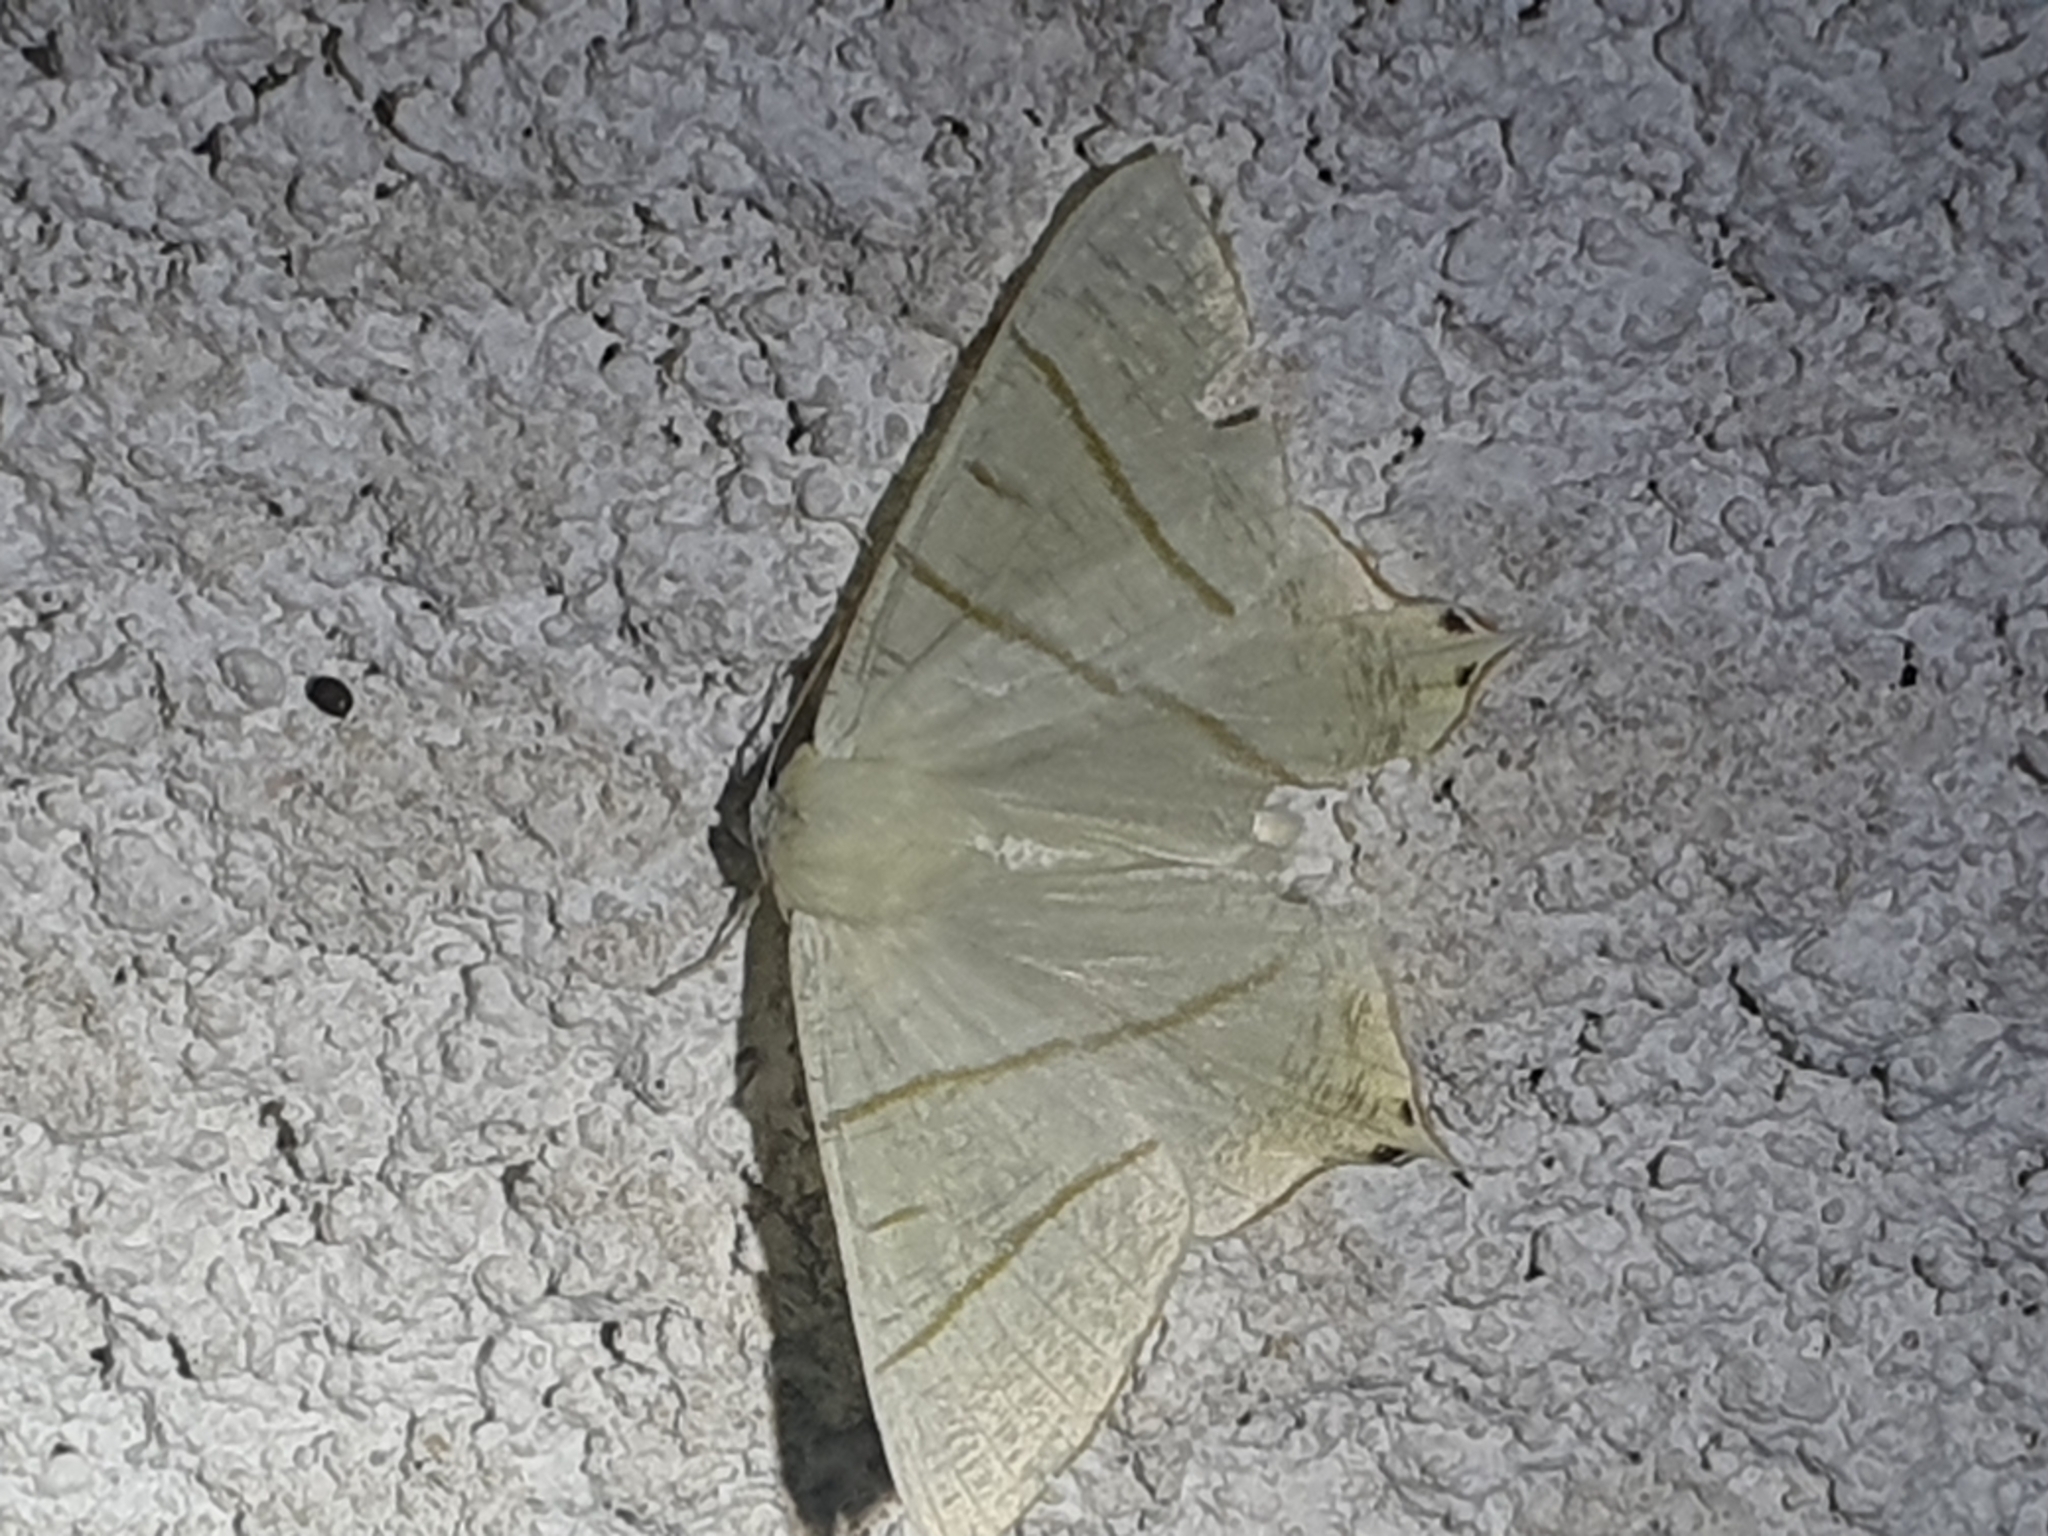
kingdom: Animalia
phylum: Arthropoda
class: Insecta
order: Lepidoptera
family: Geometridae
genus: Ourapteryx
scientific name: Ourapteryx sambucaria
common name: Swallow-tailed moth
